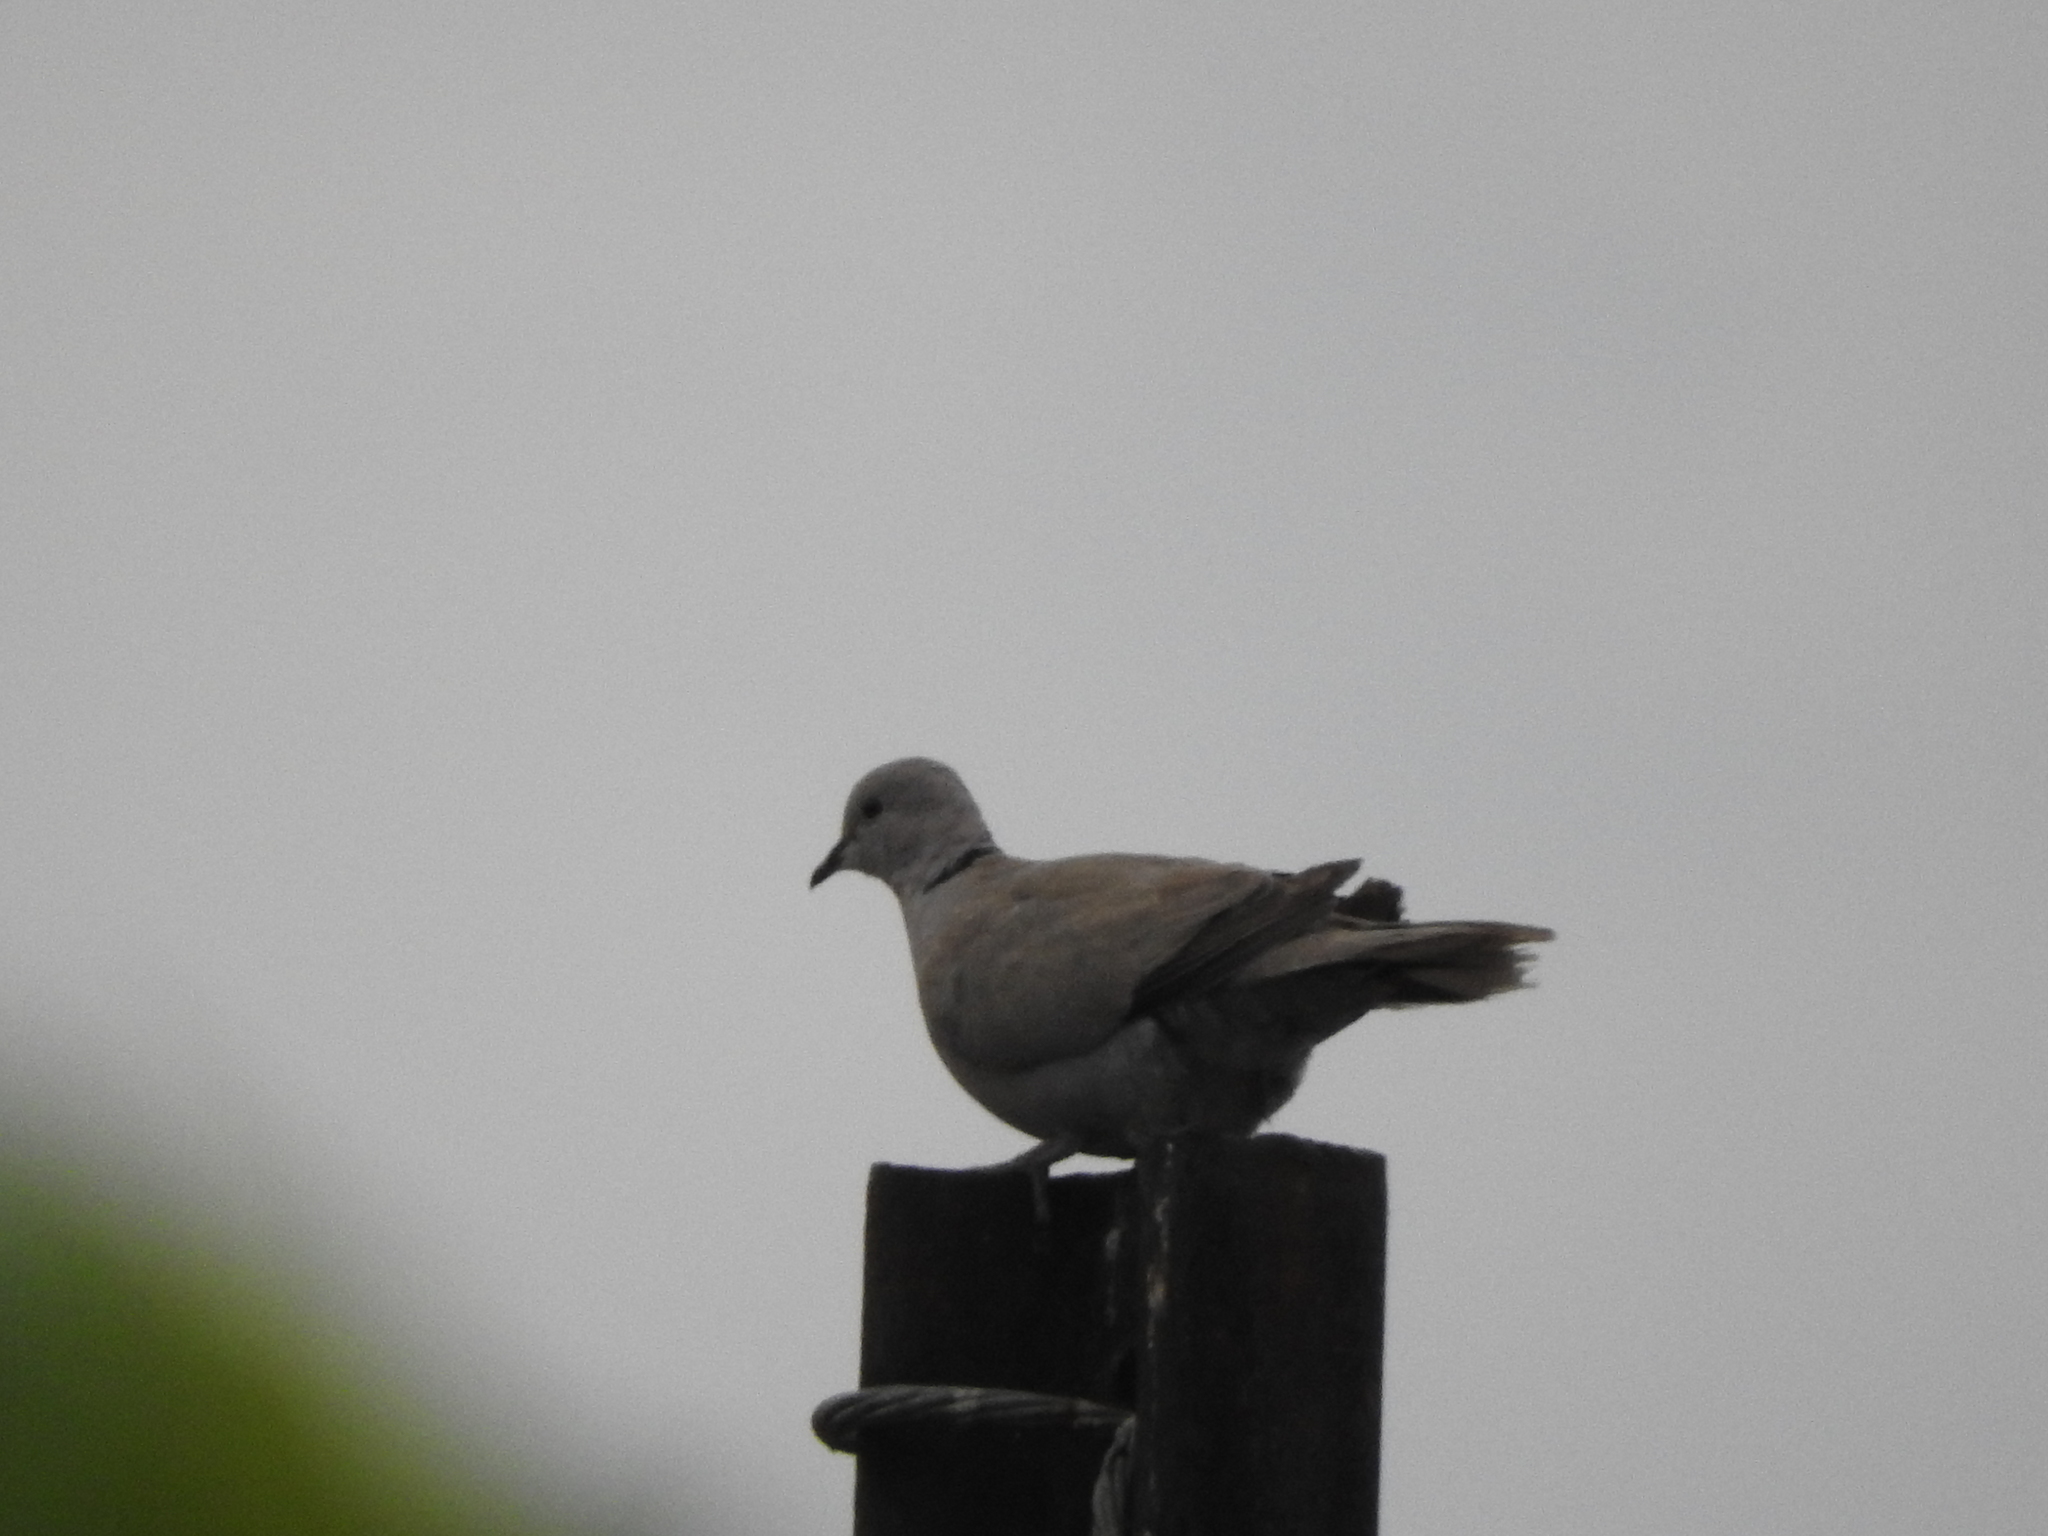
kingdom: Animalia
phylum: Chordata
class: Aves
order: Columbiformes
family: Columbidae
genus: Streptopelia
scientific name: Streptopelia decaocto
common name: Eurasian collared dove
